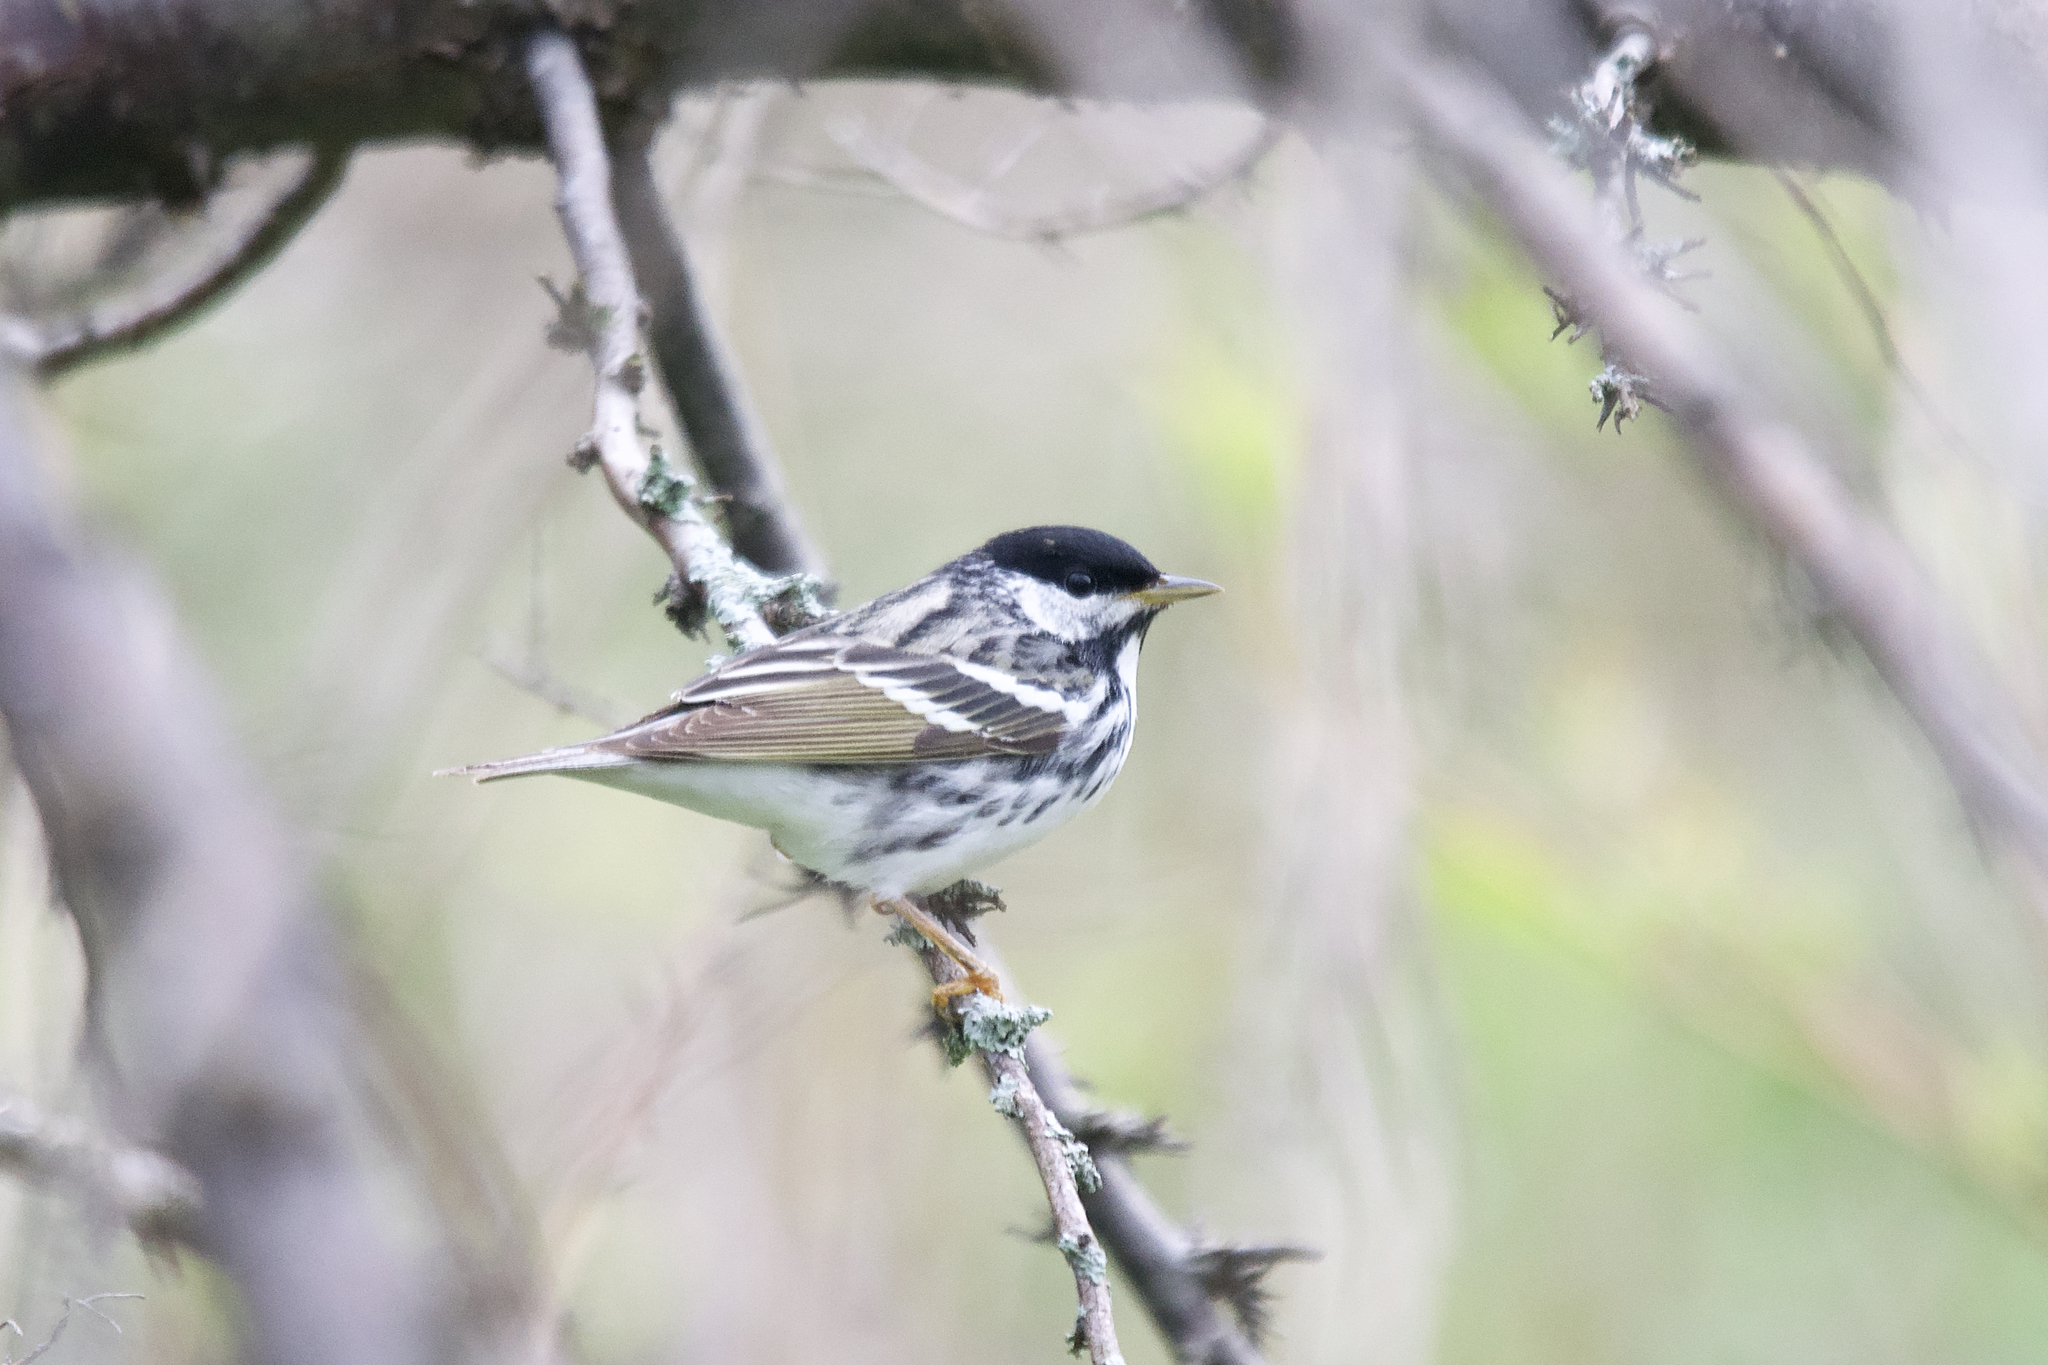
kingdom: Animalia
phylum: Chordata
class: Aves
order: Passeriformes
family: Parulidae
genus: Setophaga
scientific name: Setophaga striata
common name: Blackpoll warbler
